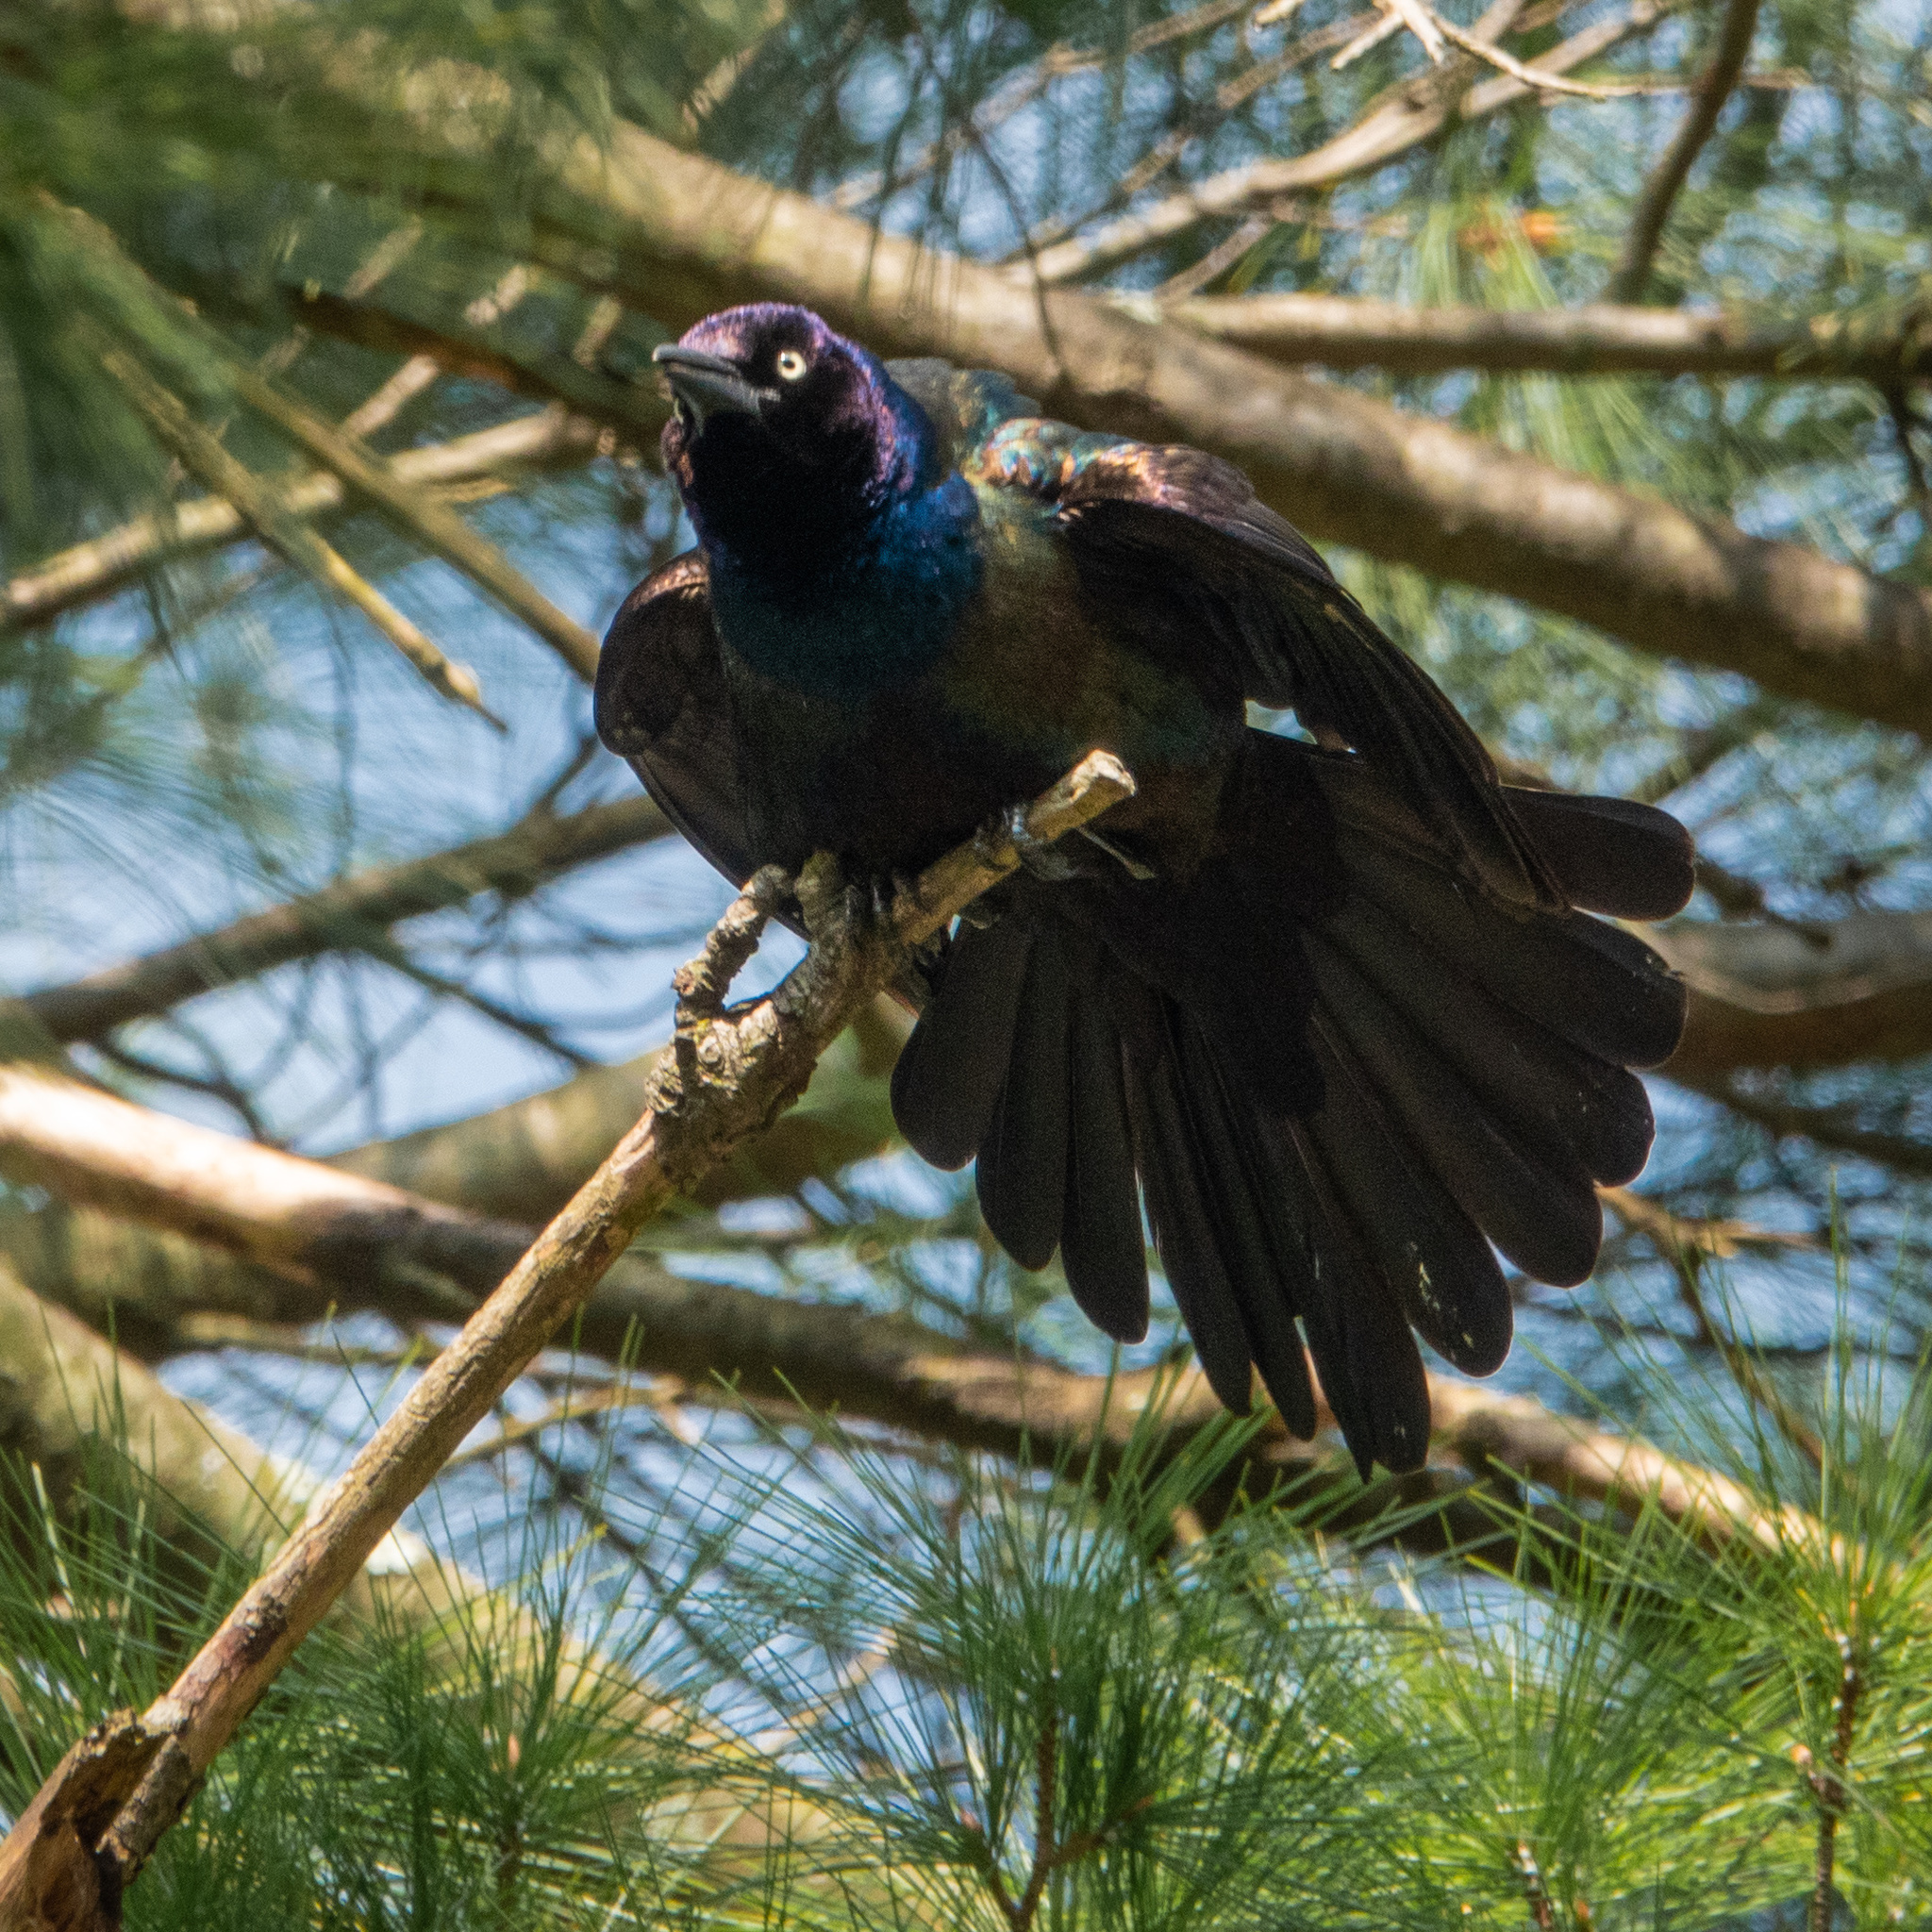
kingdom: Animalia
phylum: Chordata
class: Aves
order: Passeriformes
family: Icteridae
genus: Quiscalus
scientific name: Quiscalus quiscula
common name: Common grackle
